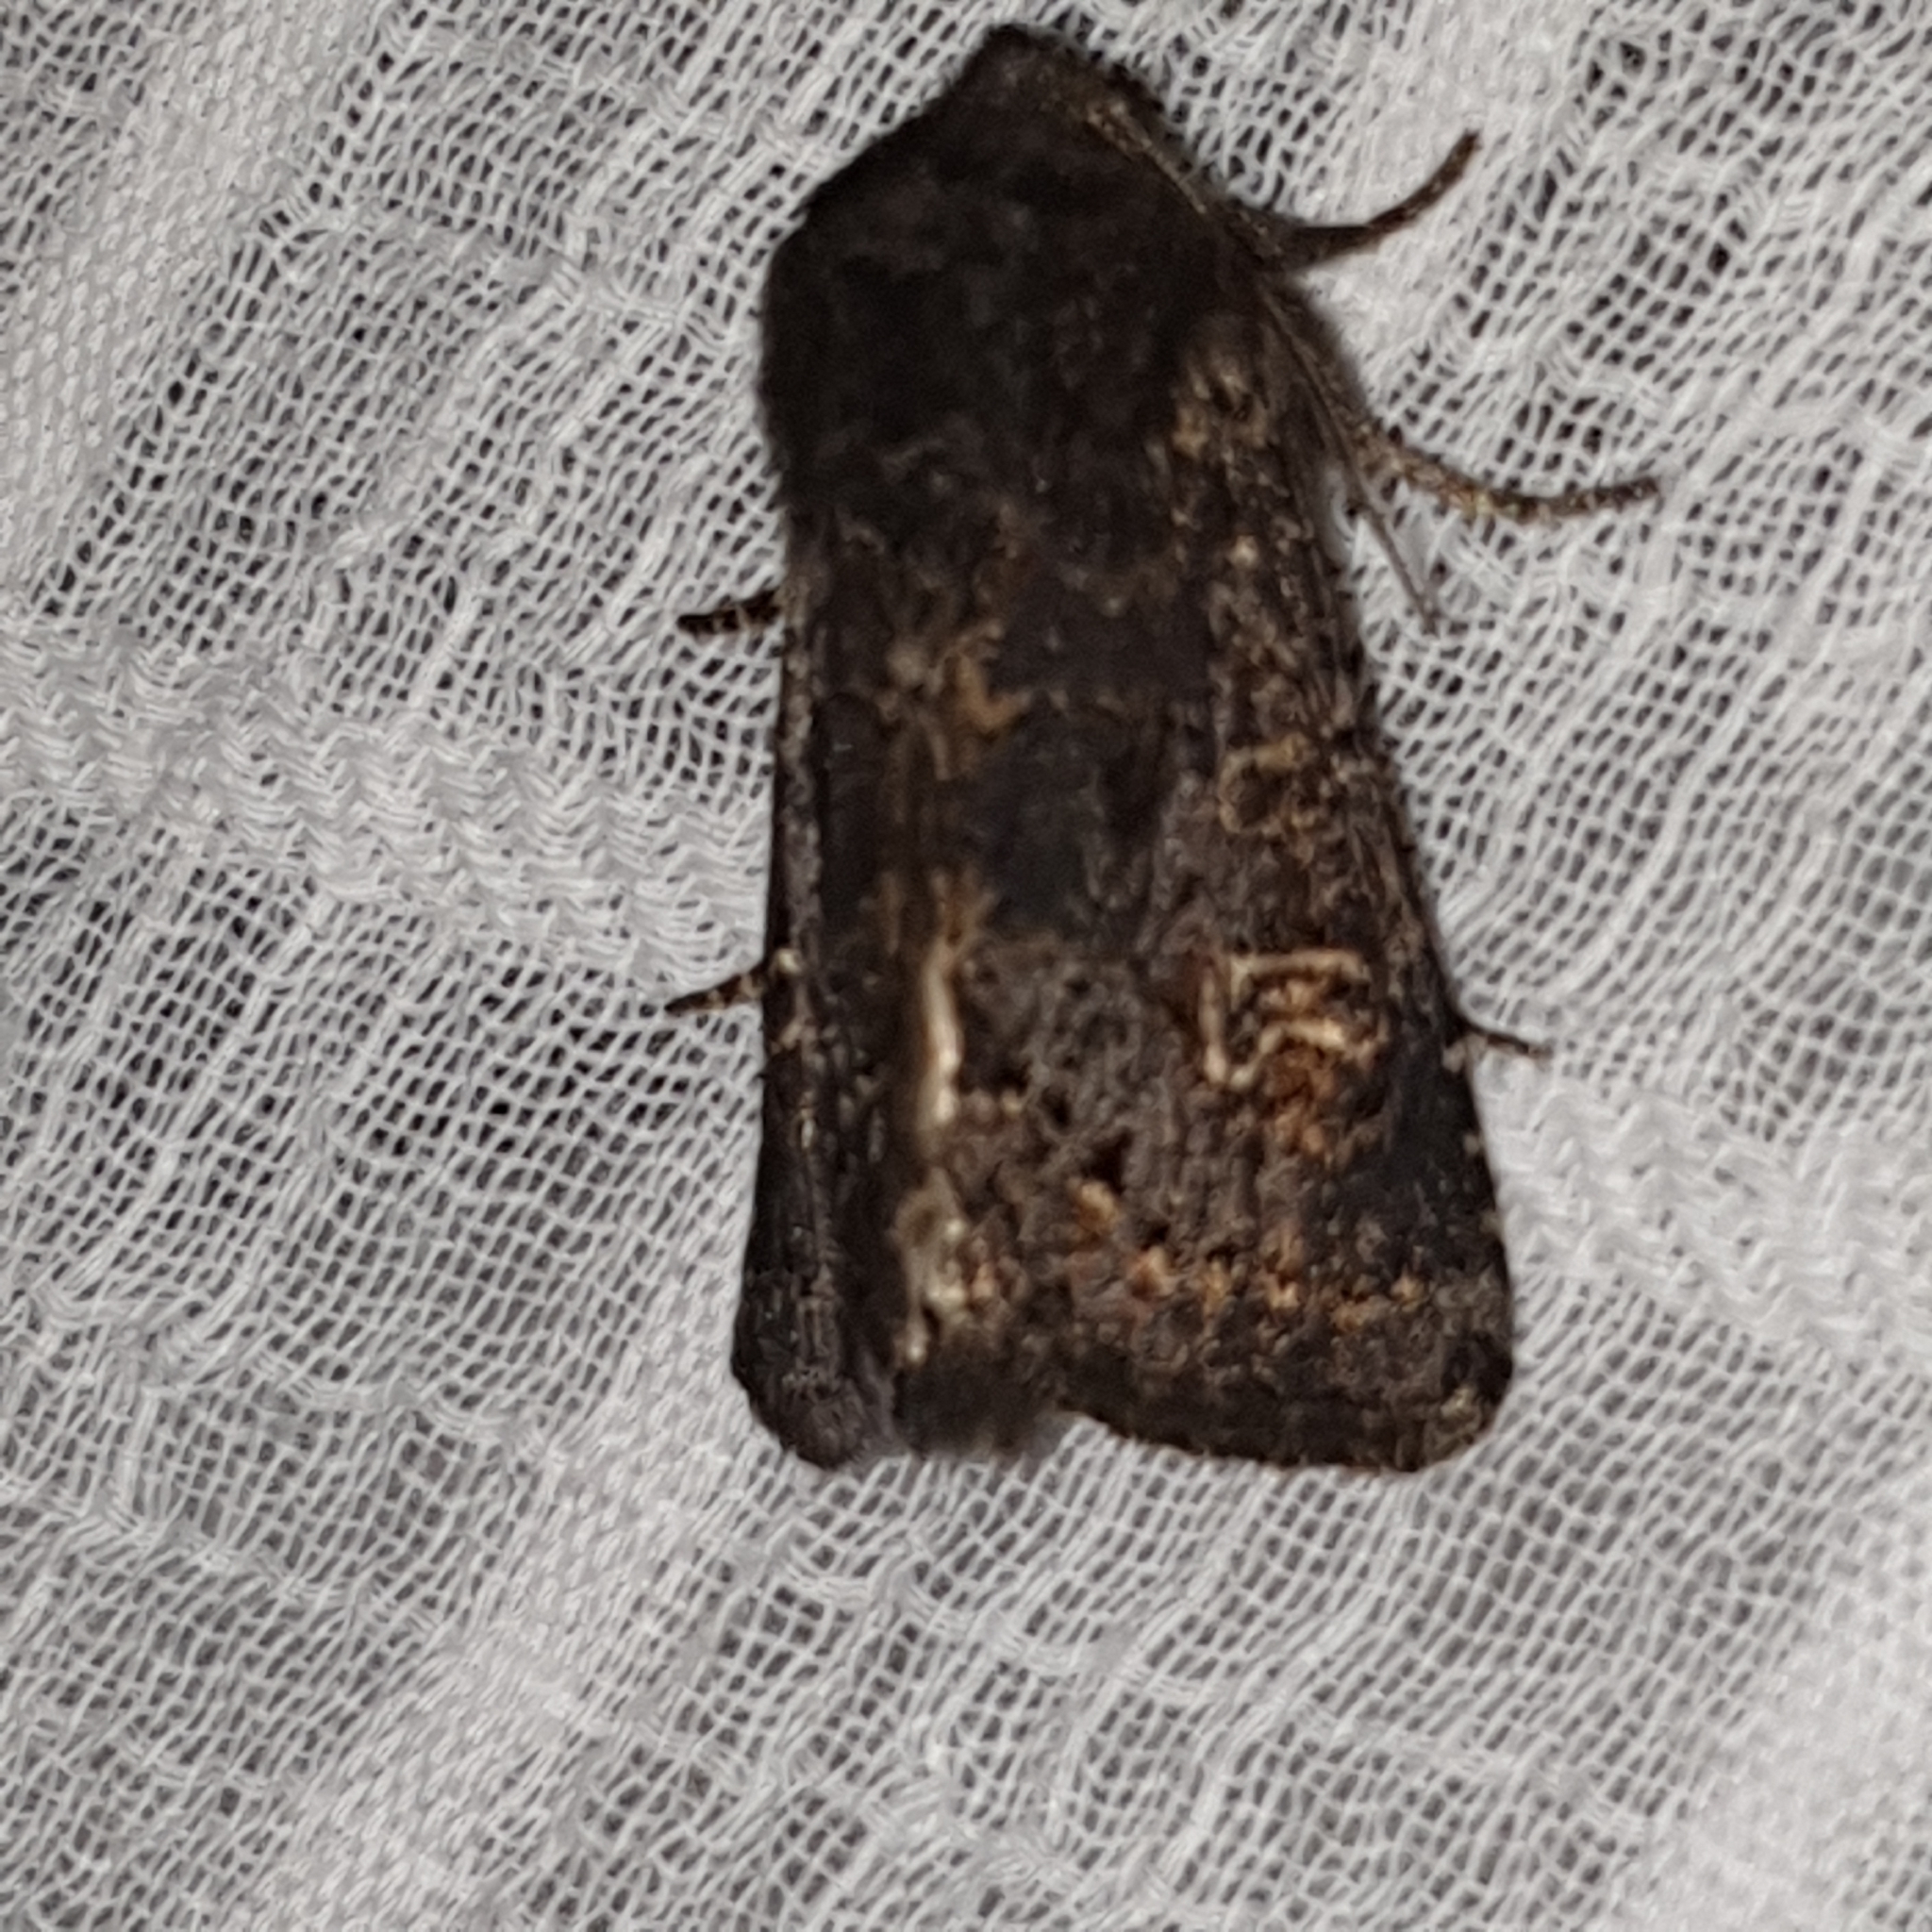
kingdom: Animalia
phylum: Arthropoda
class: Insecta
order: Lepidoptera
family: Noctuidae
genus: Tholera
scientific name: Tholera cespitis
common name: Hedge rustic
